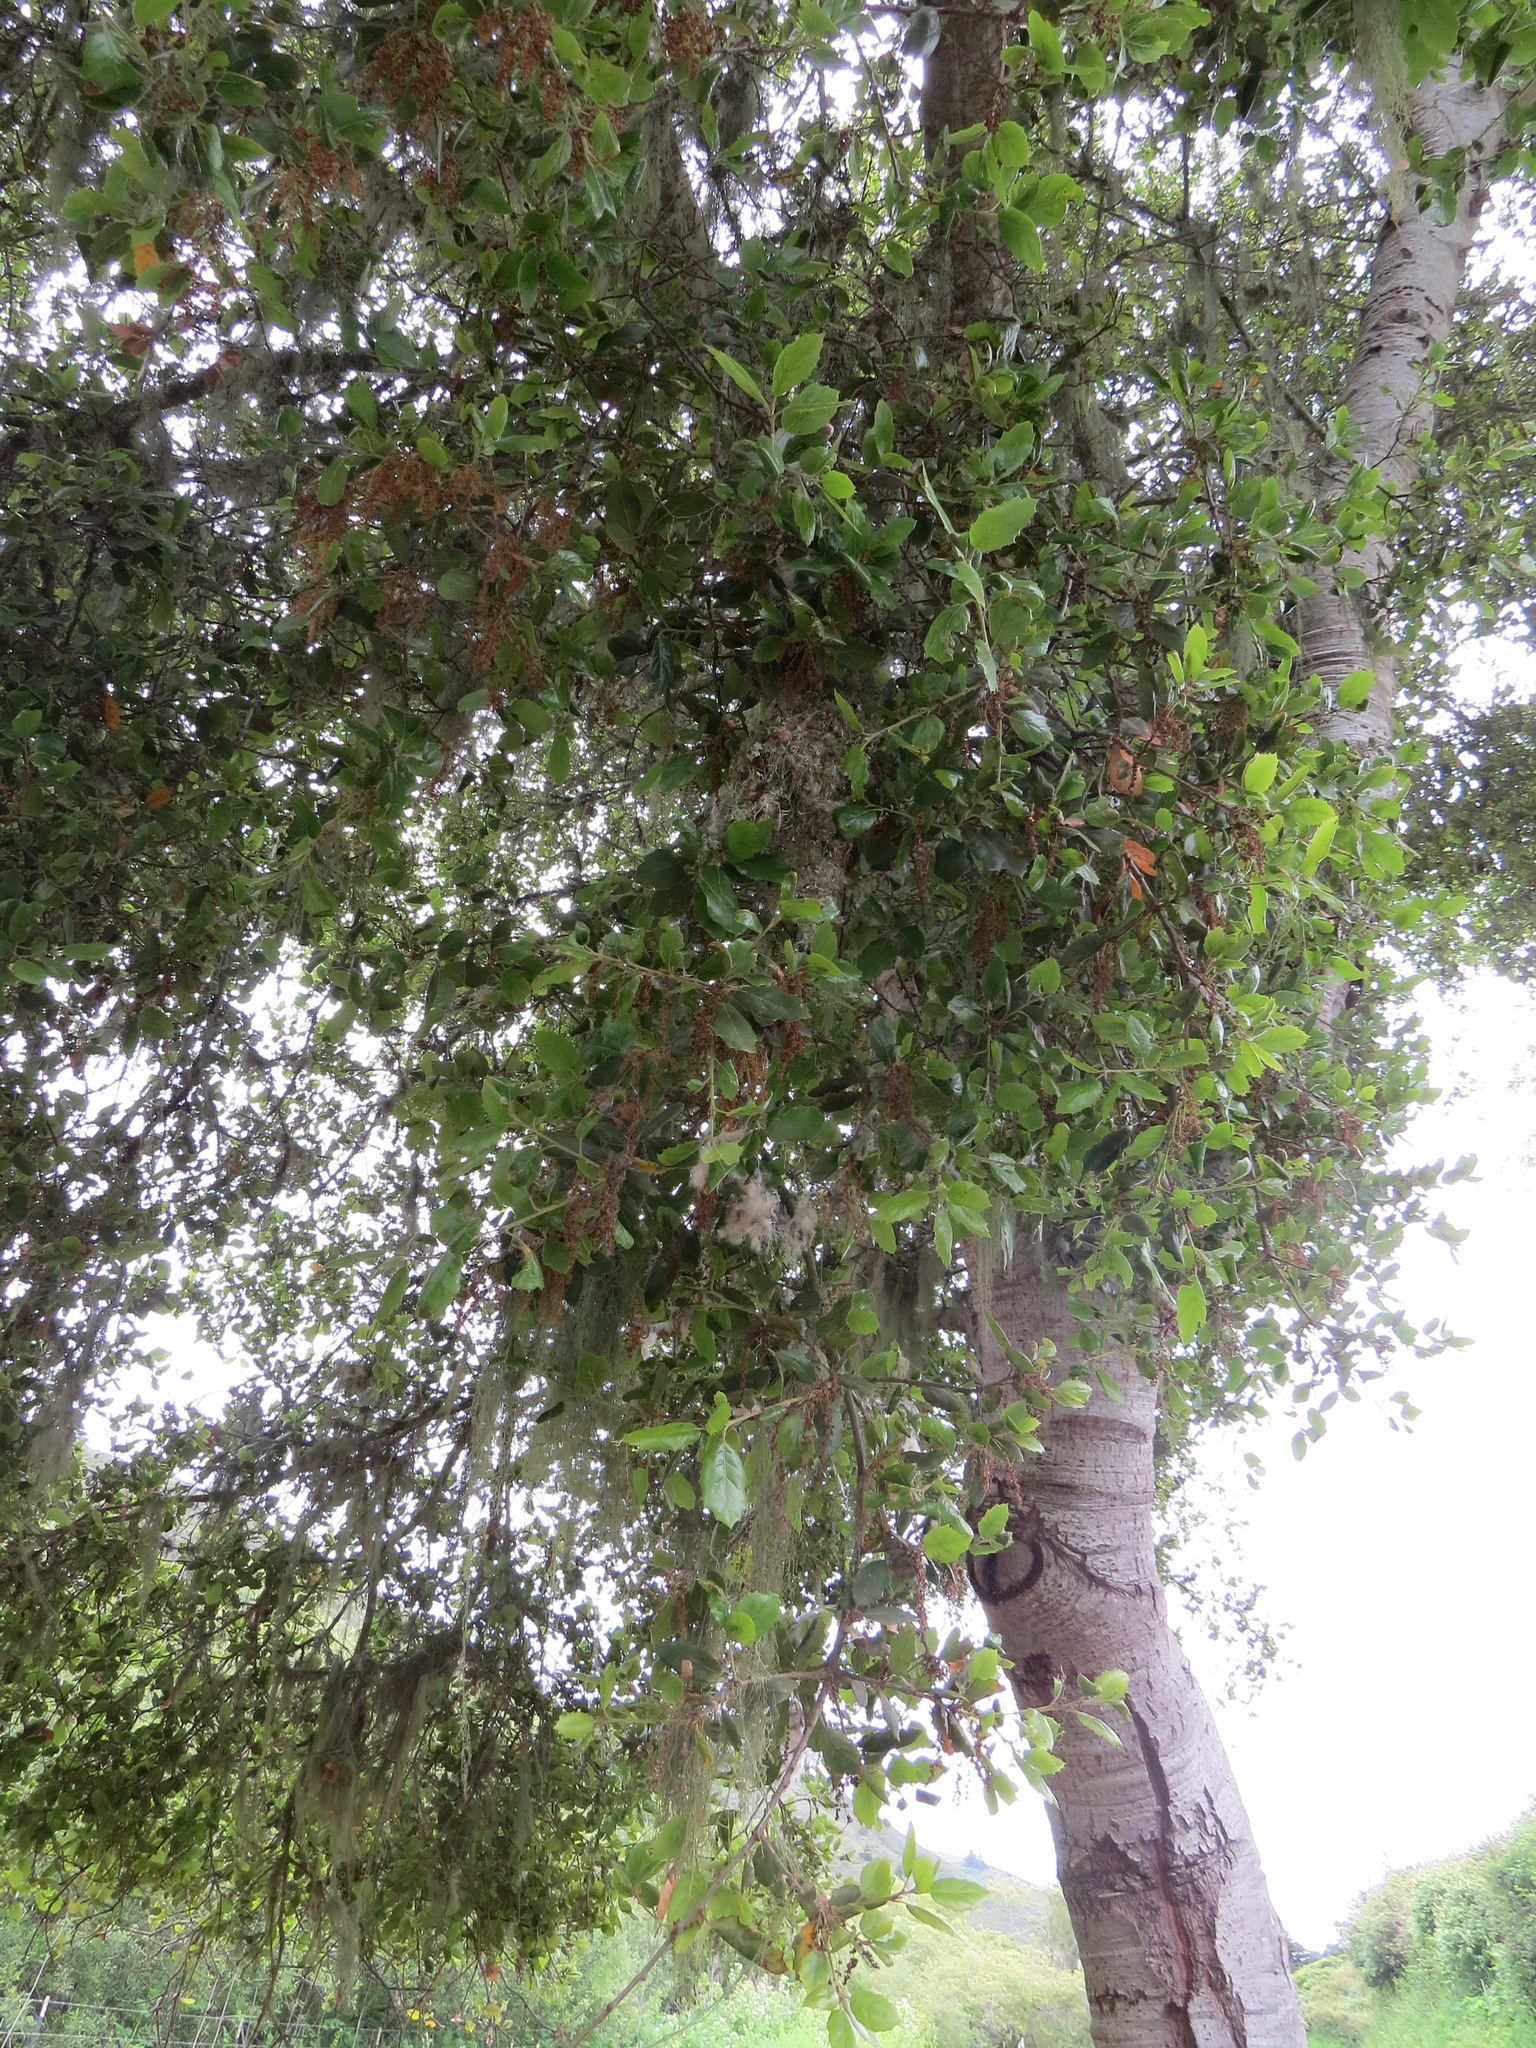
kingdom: Animalia
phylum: Chordata
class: Aves
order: Passeriformes
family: Aegithalidae
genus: Psaltriparus
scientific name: Psaltriparus minimus
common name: American bushtit
